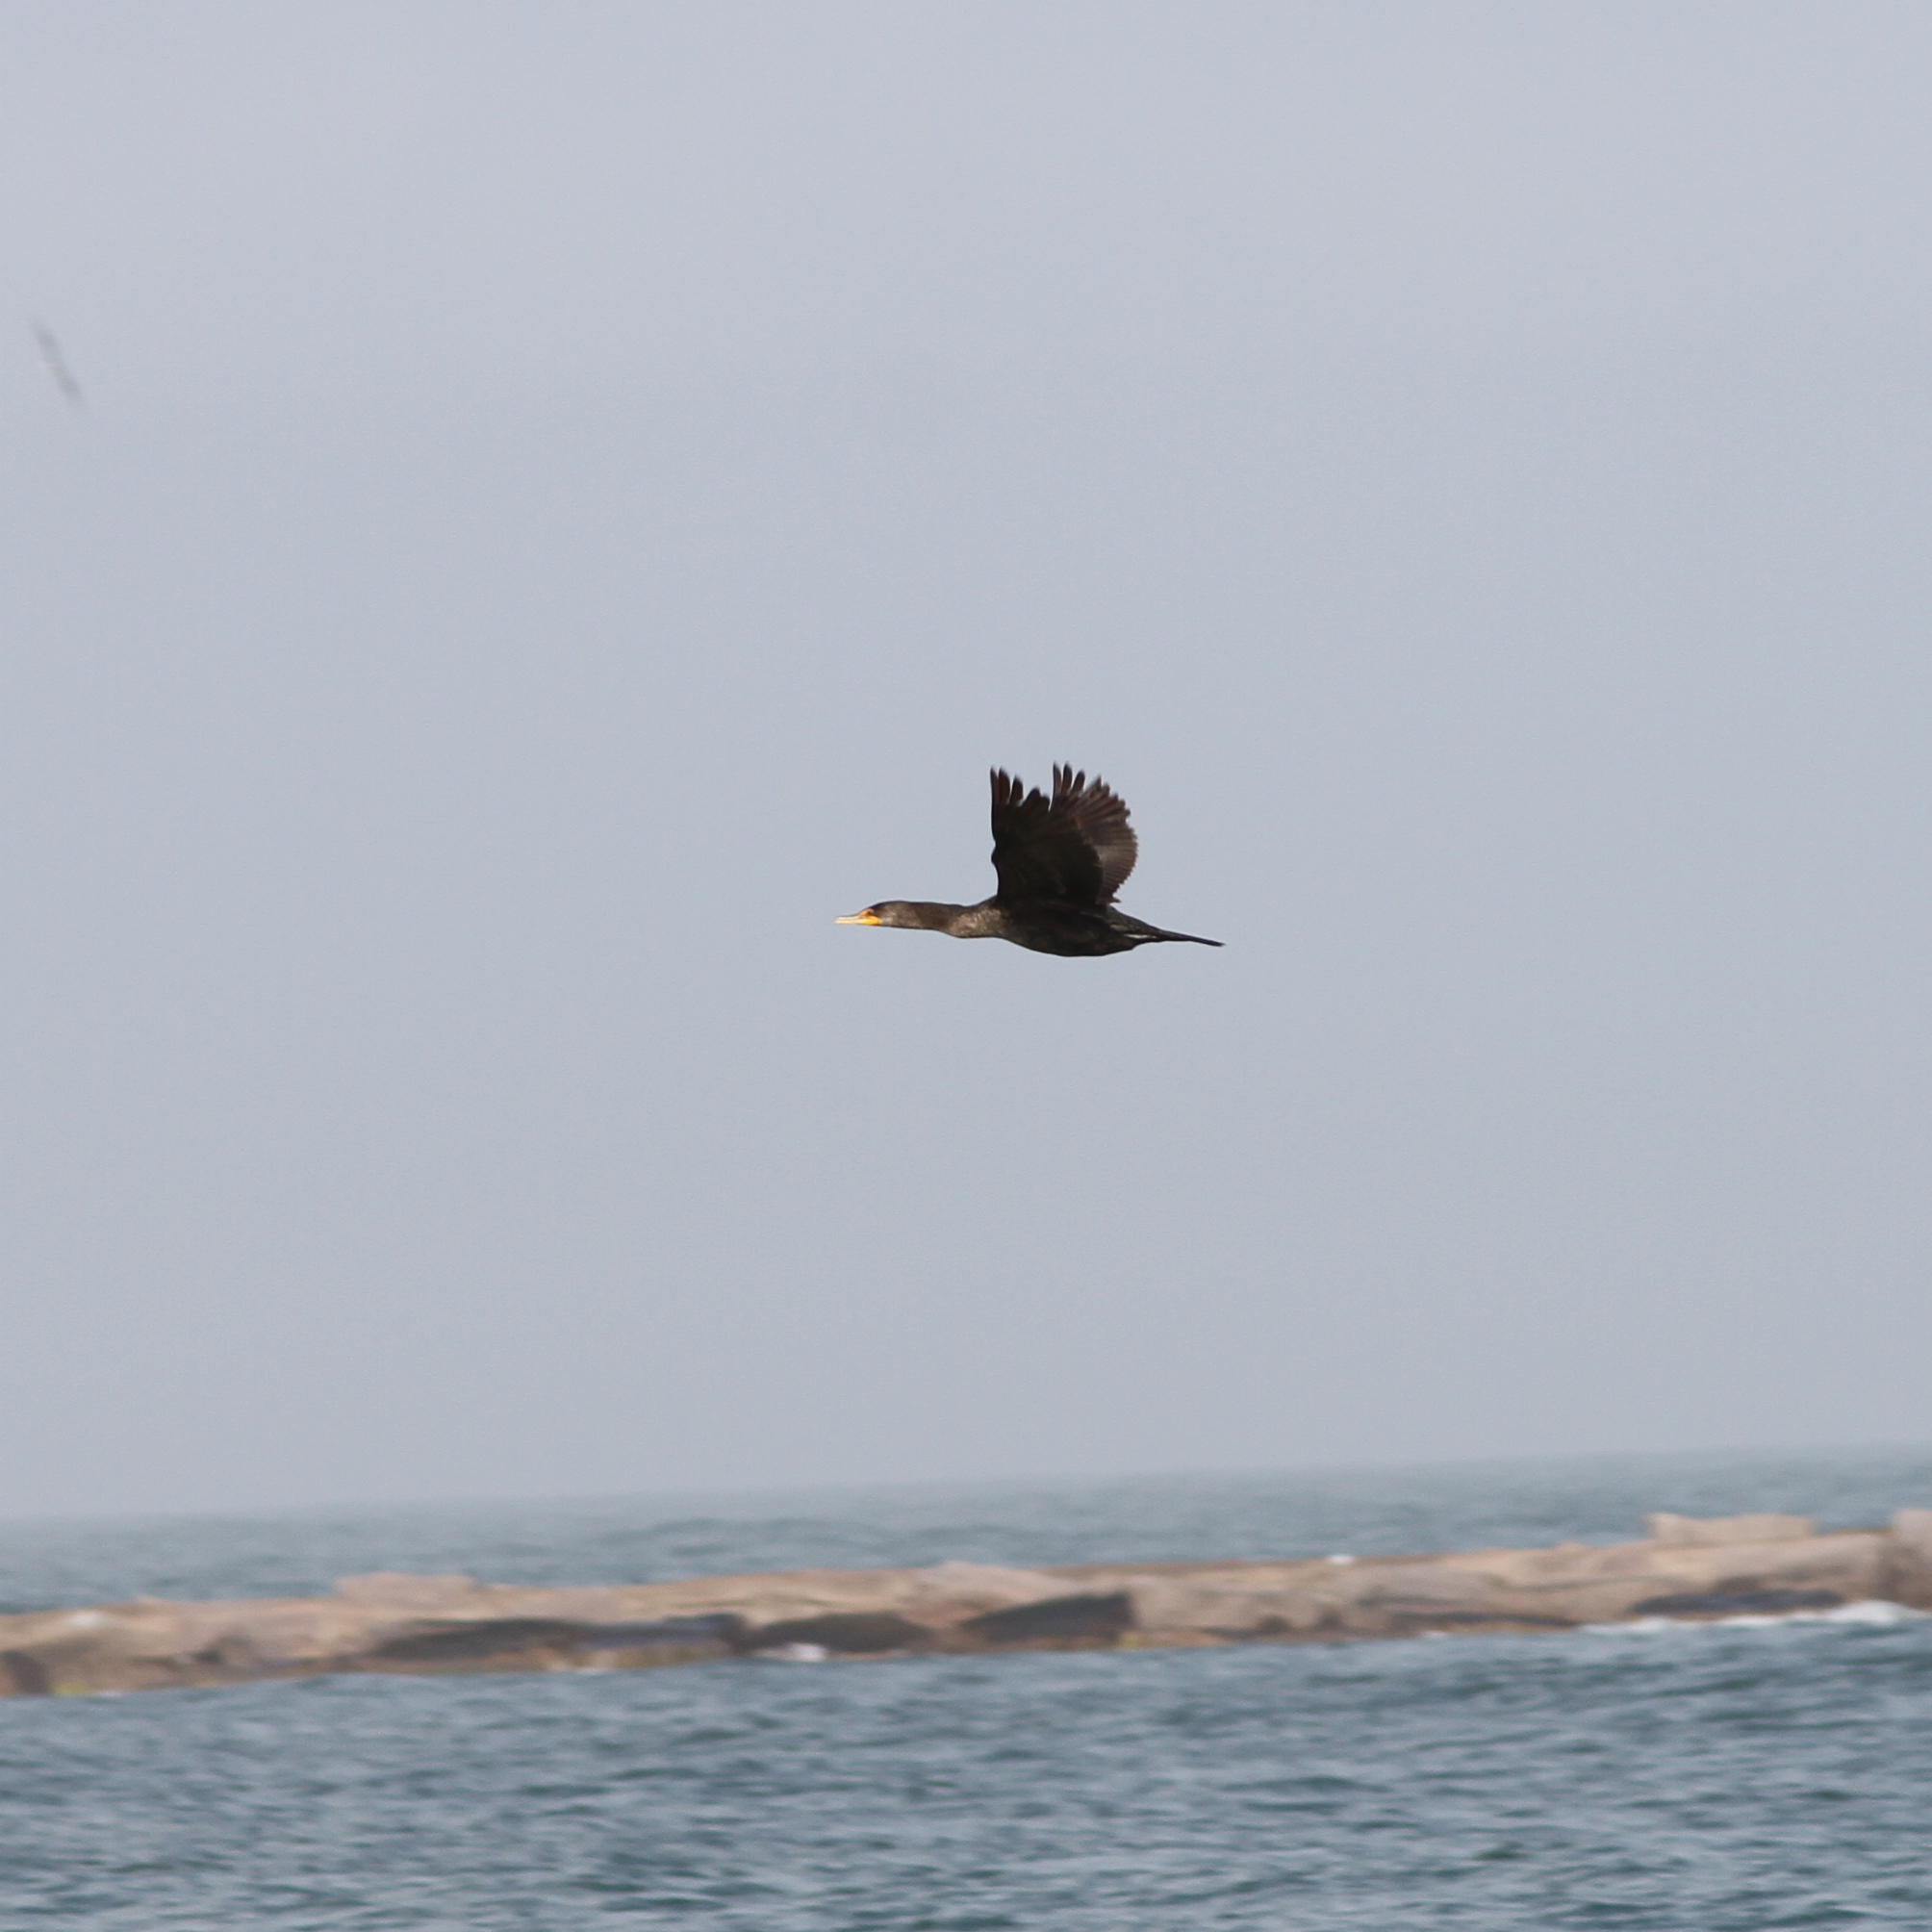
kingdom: Animalia
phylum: Chordata
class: Aves
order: Suliformes
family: Phalacrocoracidae
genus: Phalacrocorax
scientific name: Phalacrocorax auritus
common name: Double-crested cormorant
